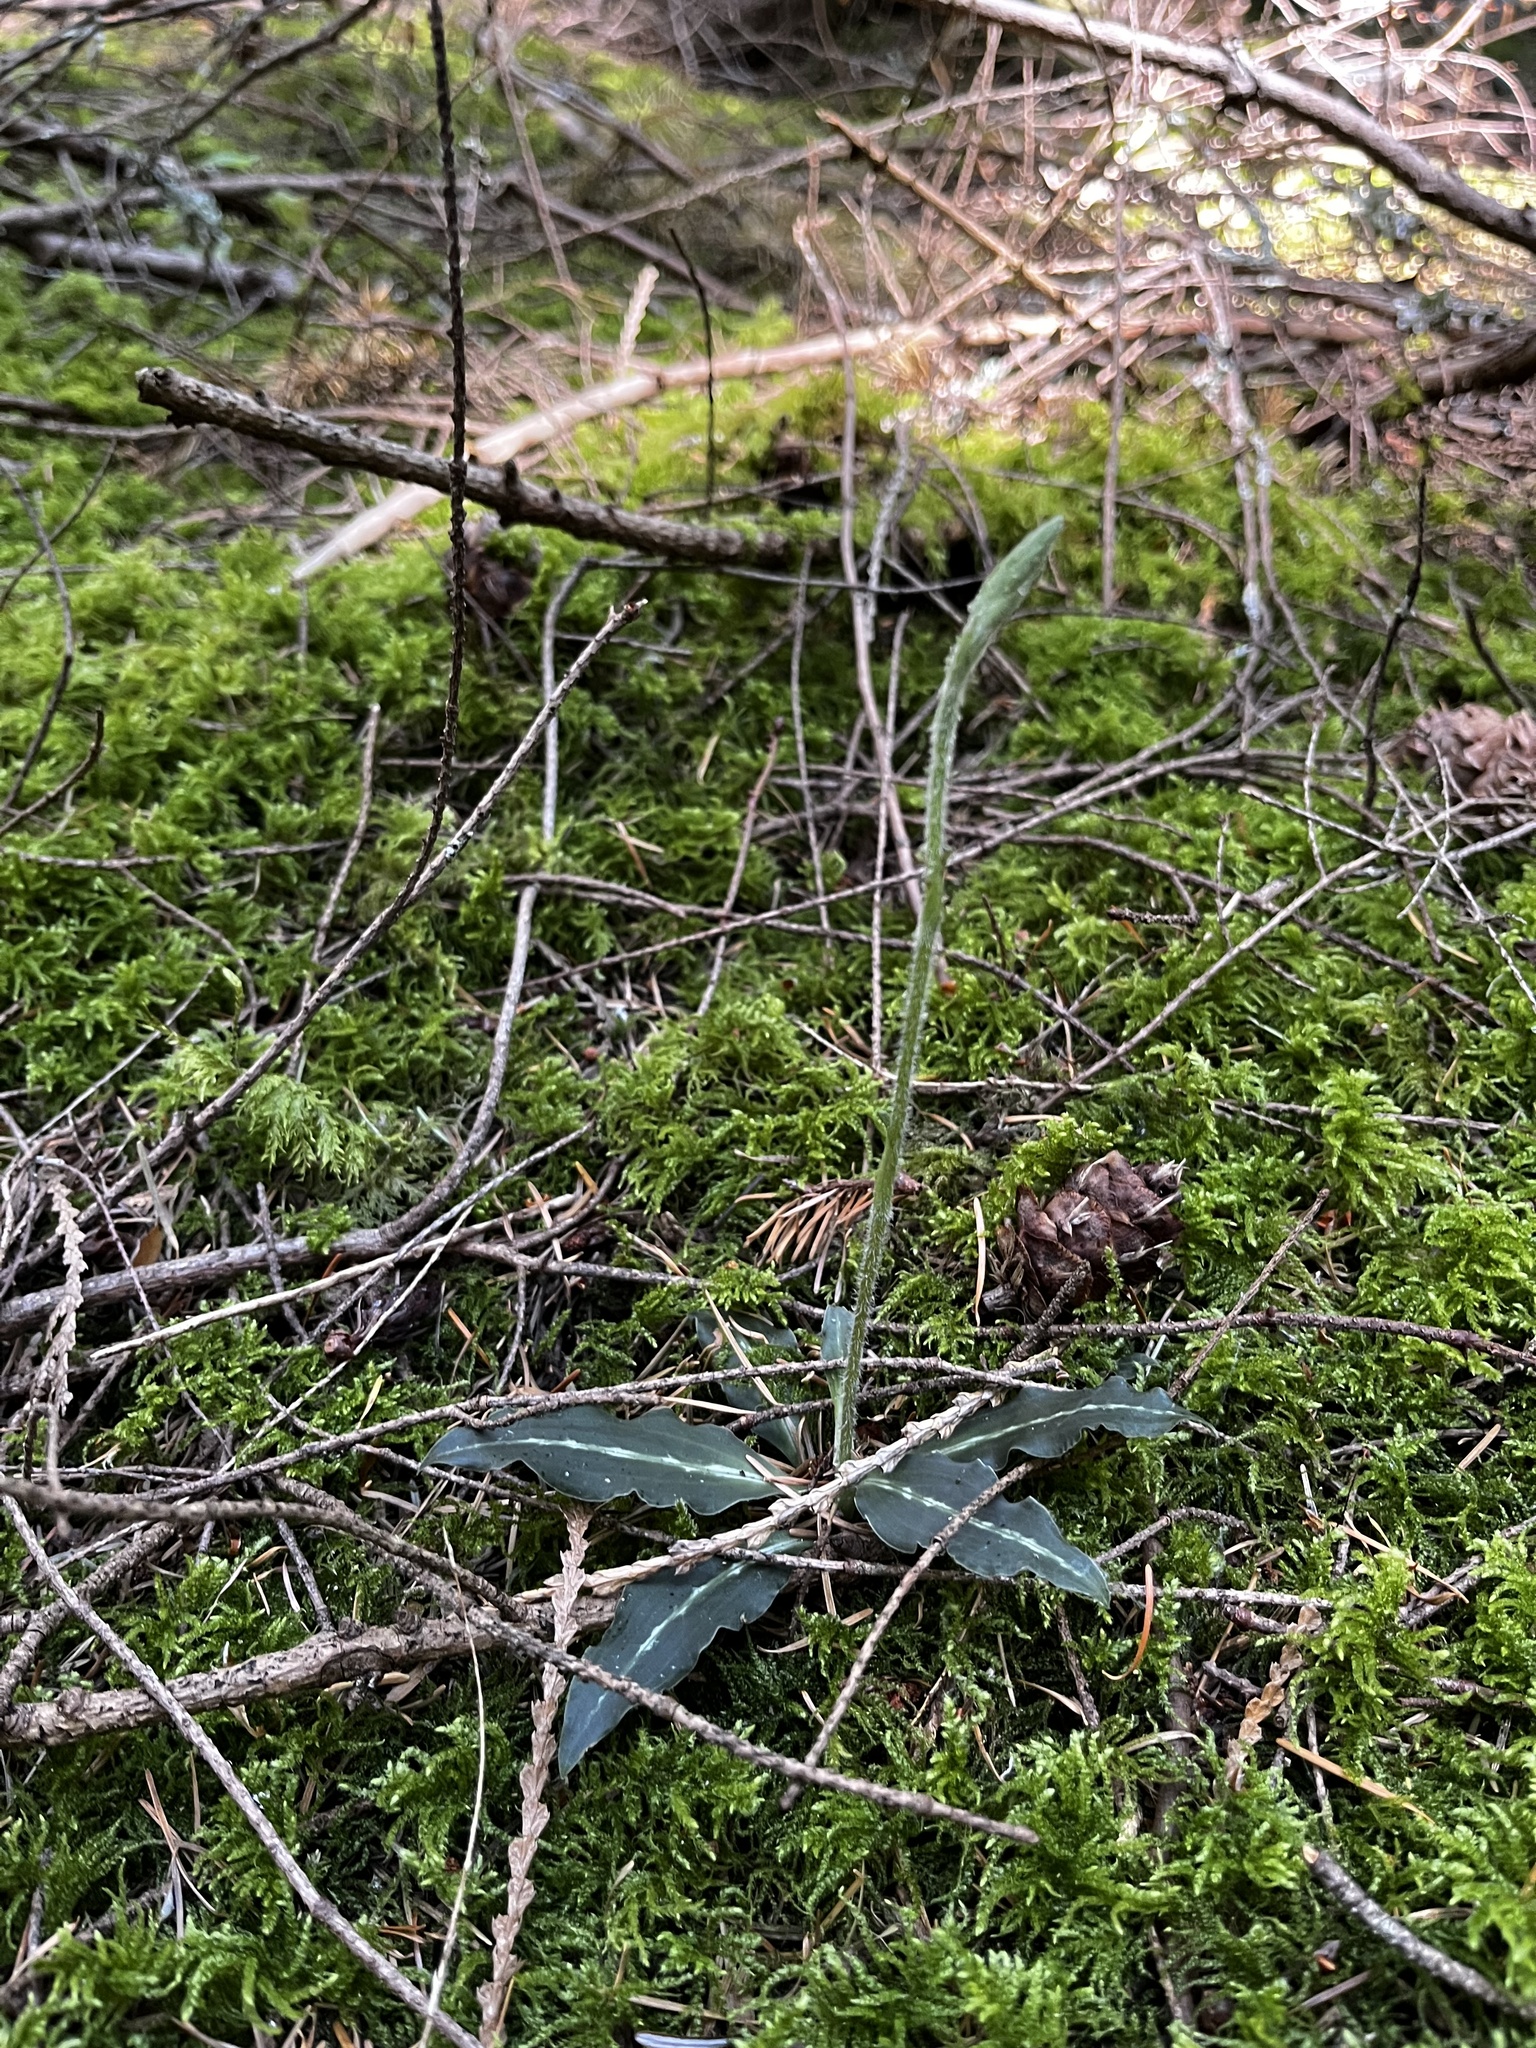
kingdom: Plantae
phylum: Tracheophyta
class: Liliopsida
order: Asparagales
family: Orchidaceae
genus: Goodyera
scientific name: Goodyera oblongifolia
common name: Giant rattlesnake-plantain
